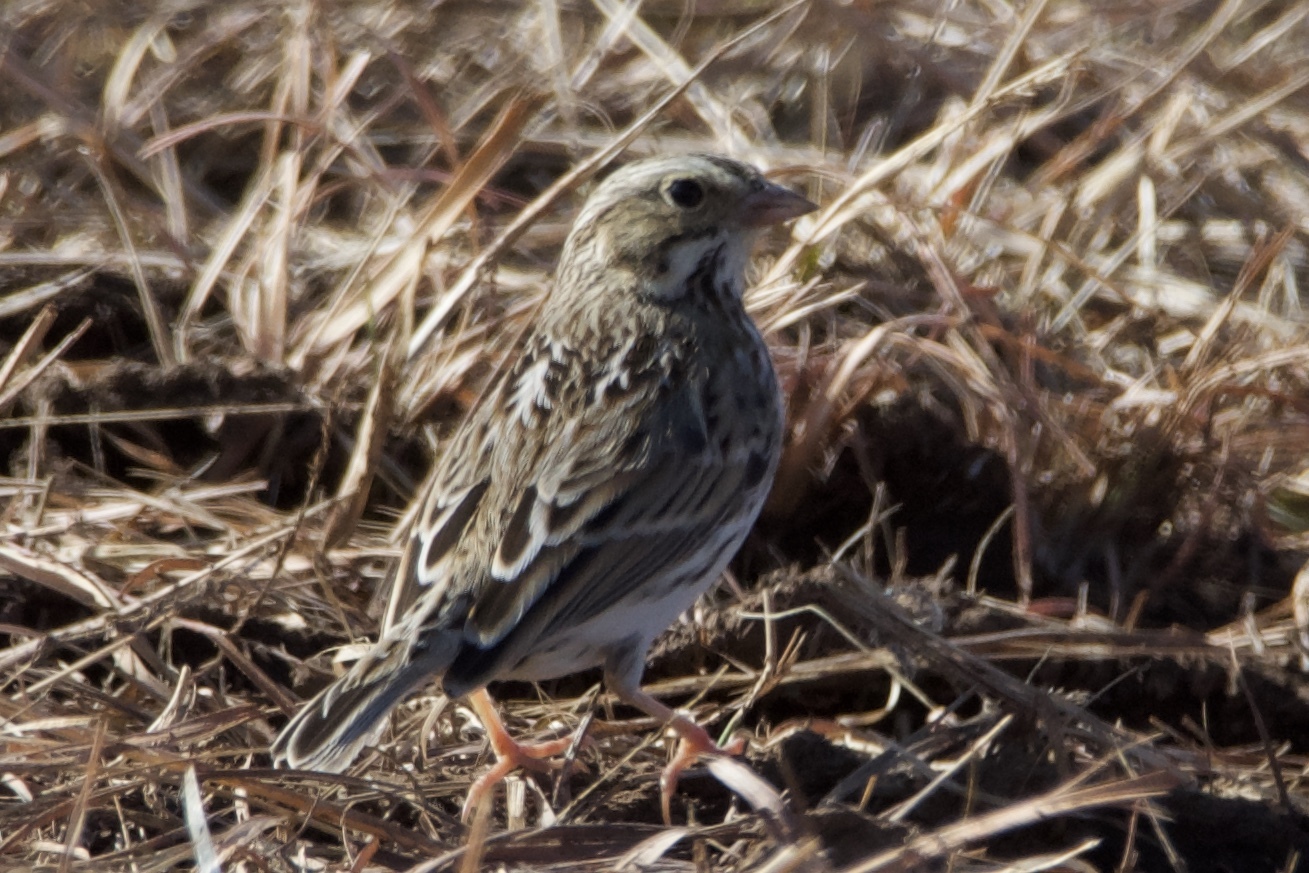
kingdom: Animalia
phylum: Chordata
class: Aves
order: Passeriformes
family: Passerellidae
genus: Passerculus
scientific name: Passerculus sandwichensis
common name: Savannah sparrow
